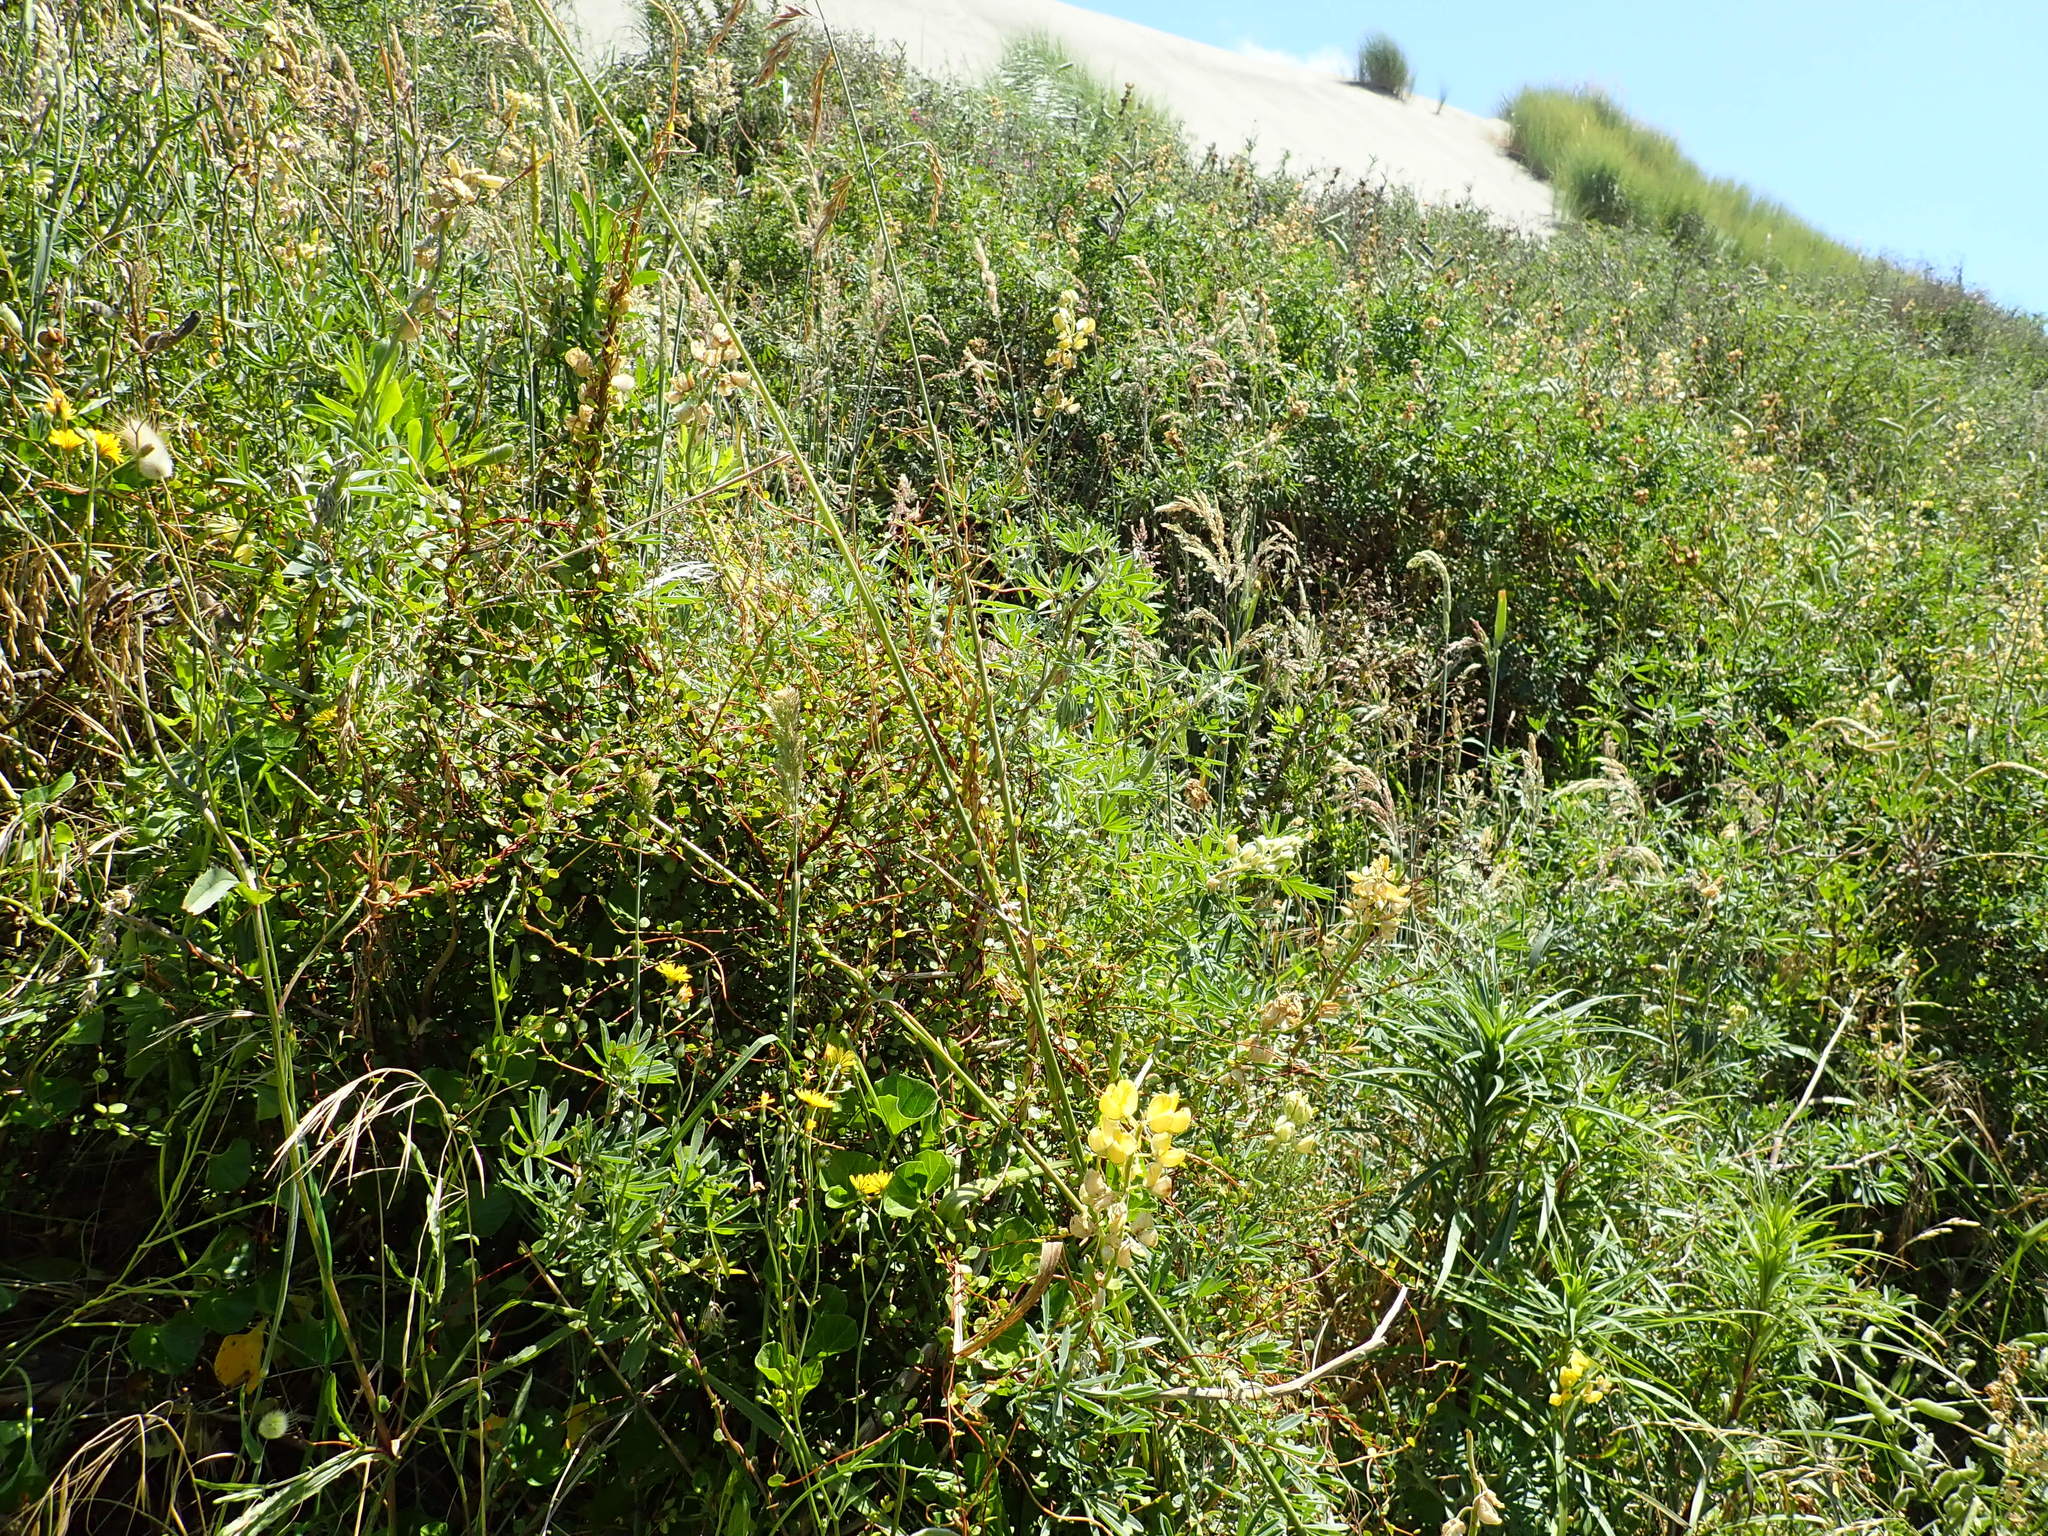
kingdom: Plantae
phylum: Tracheophyta
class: Magnoliopsida
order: Caryophyllales
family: Polygonaceae
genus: Muehlenbeckia
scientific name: Muehlenbeckia complexa
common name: Wireplant
